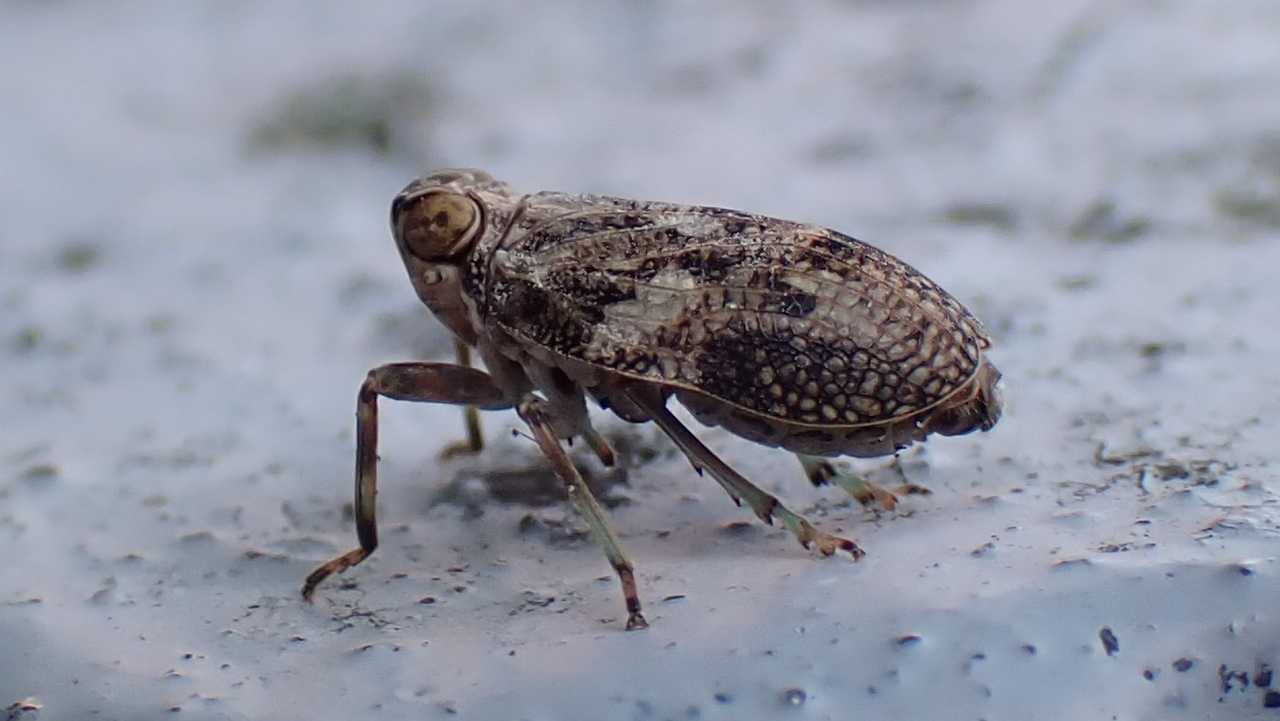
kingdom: Animalia
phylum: Arthropoda
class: Insecta
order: Hemiptera
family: Issidae
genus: Issus
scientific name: Issus coleoptratus
